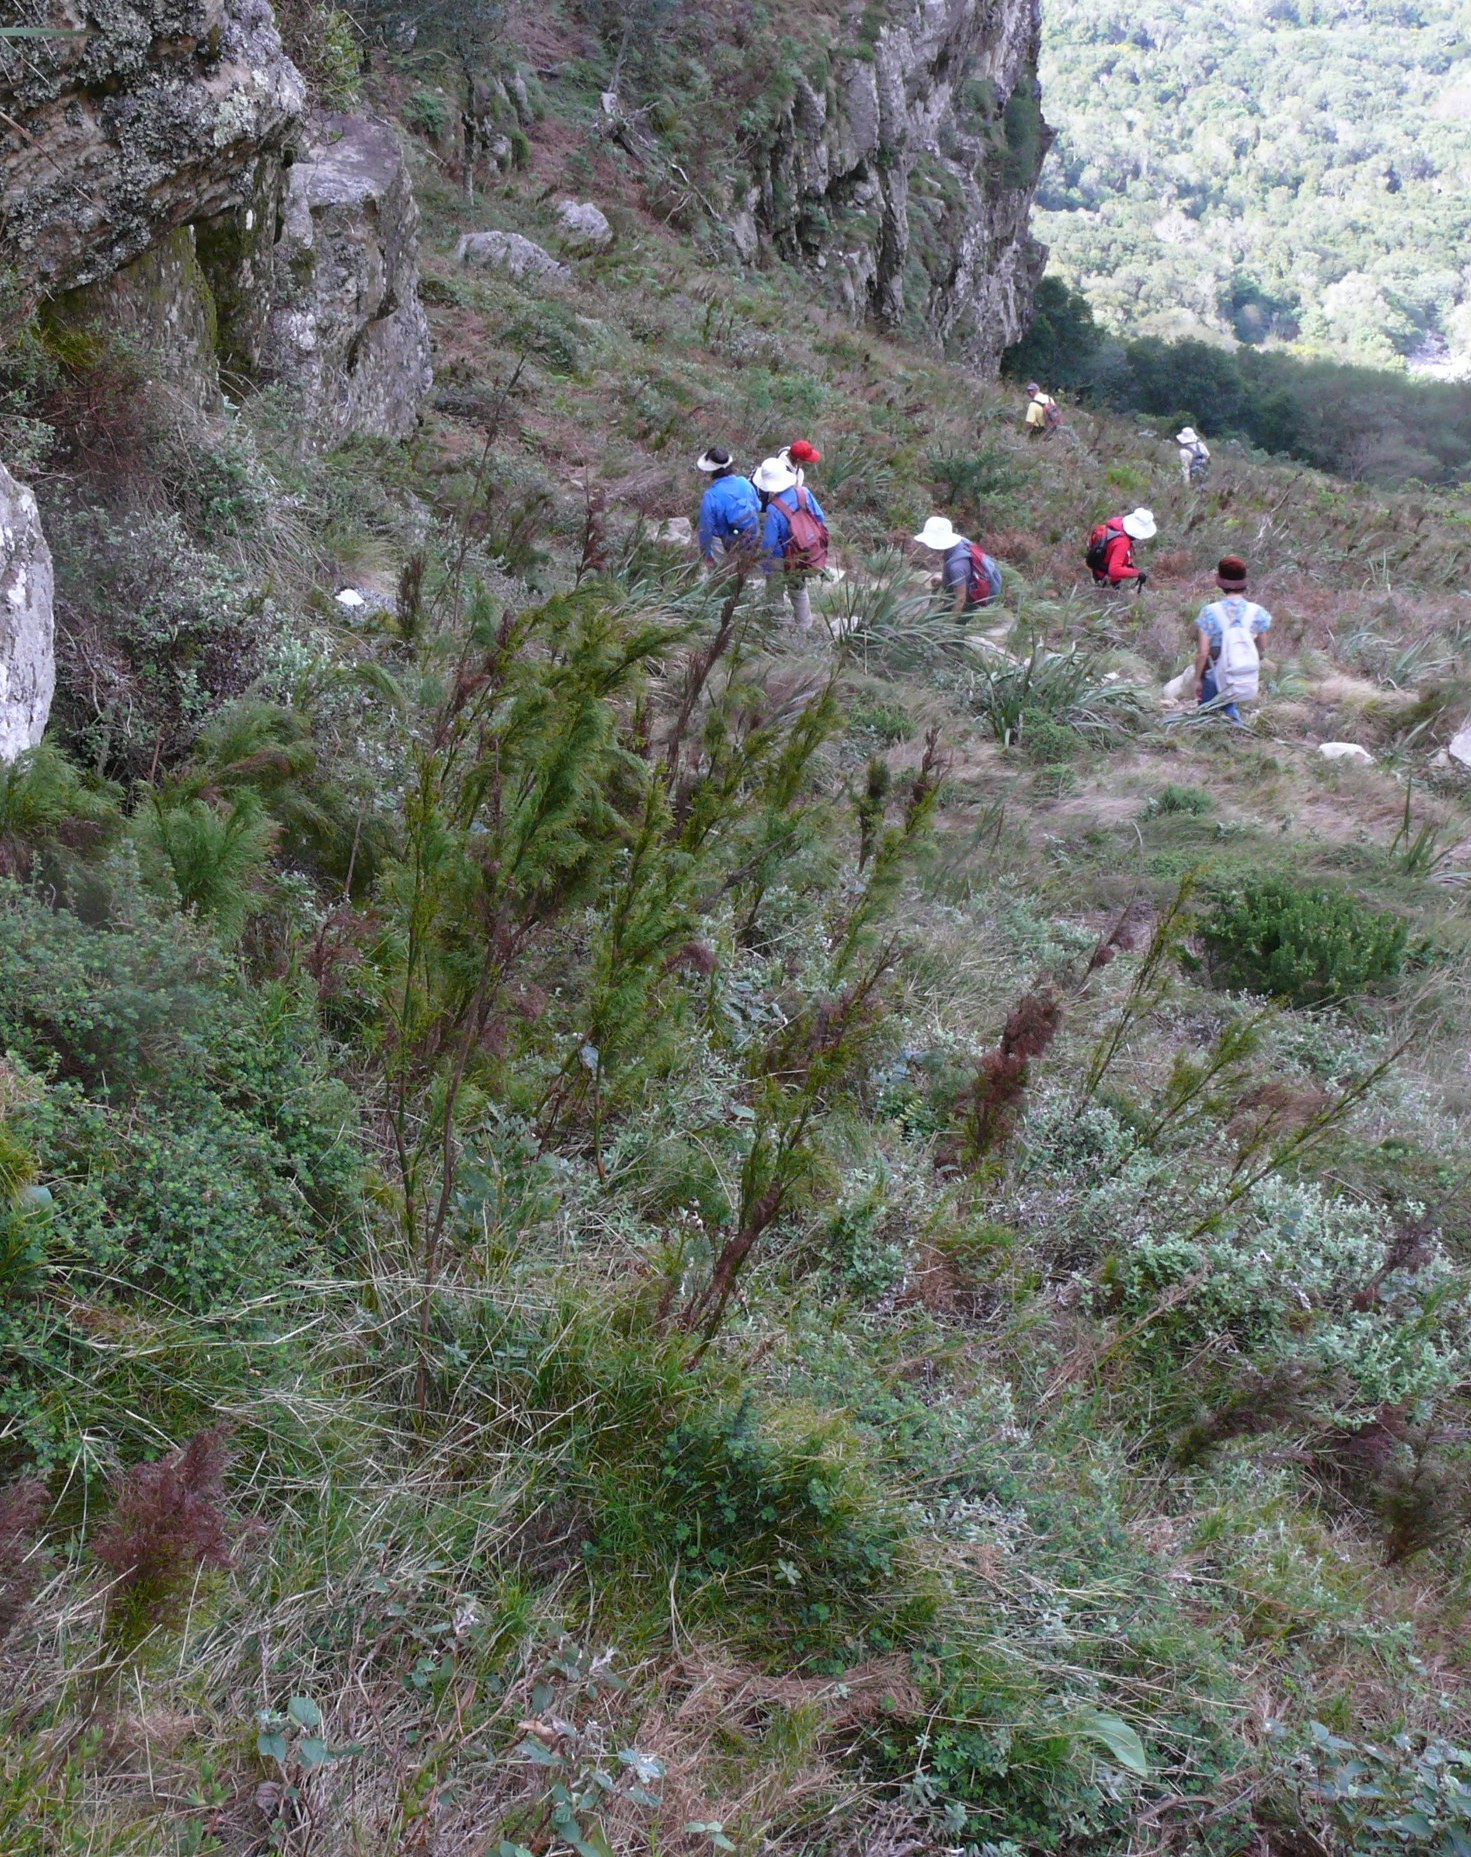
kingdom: Plantae
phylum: Tracheophyta
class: Liliopsida
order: Poales
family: Restionaceae
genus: Restio
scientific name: Restio quadratus
